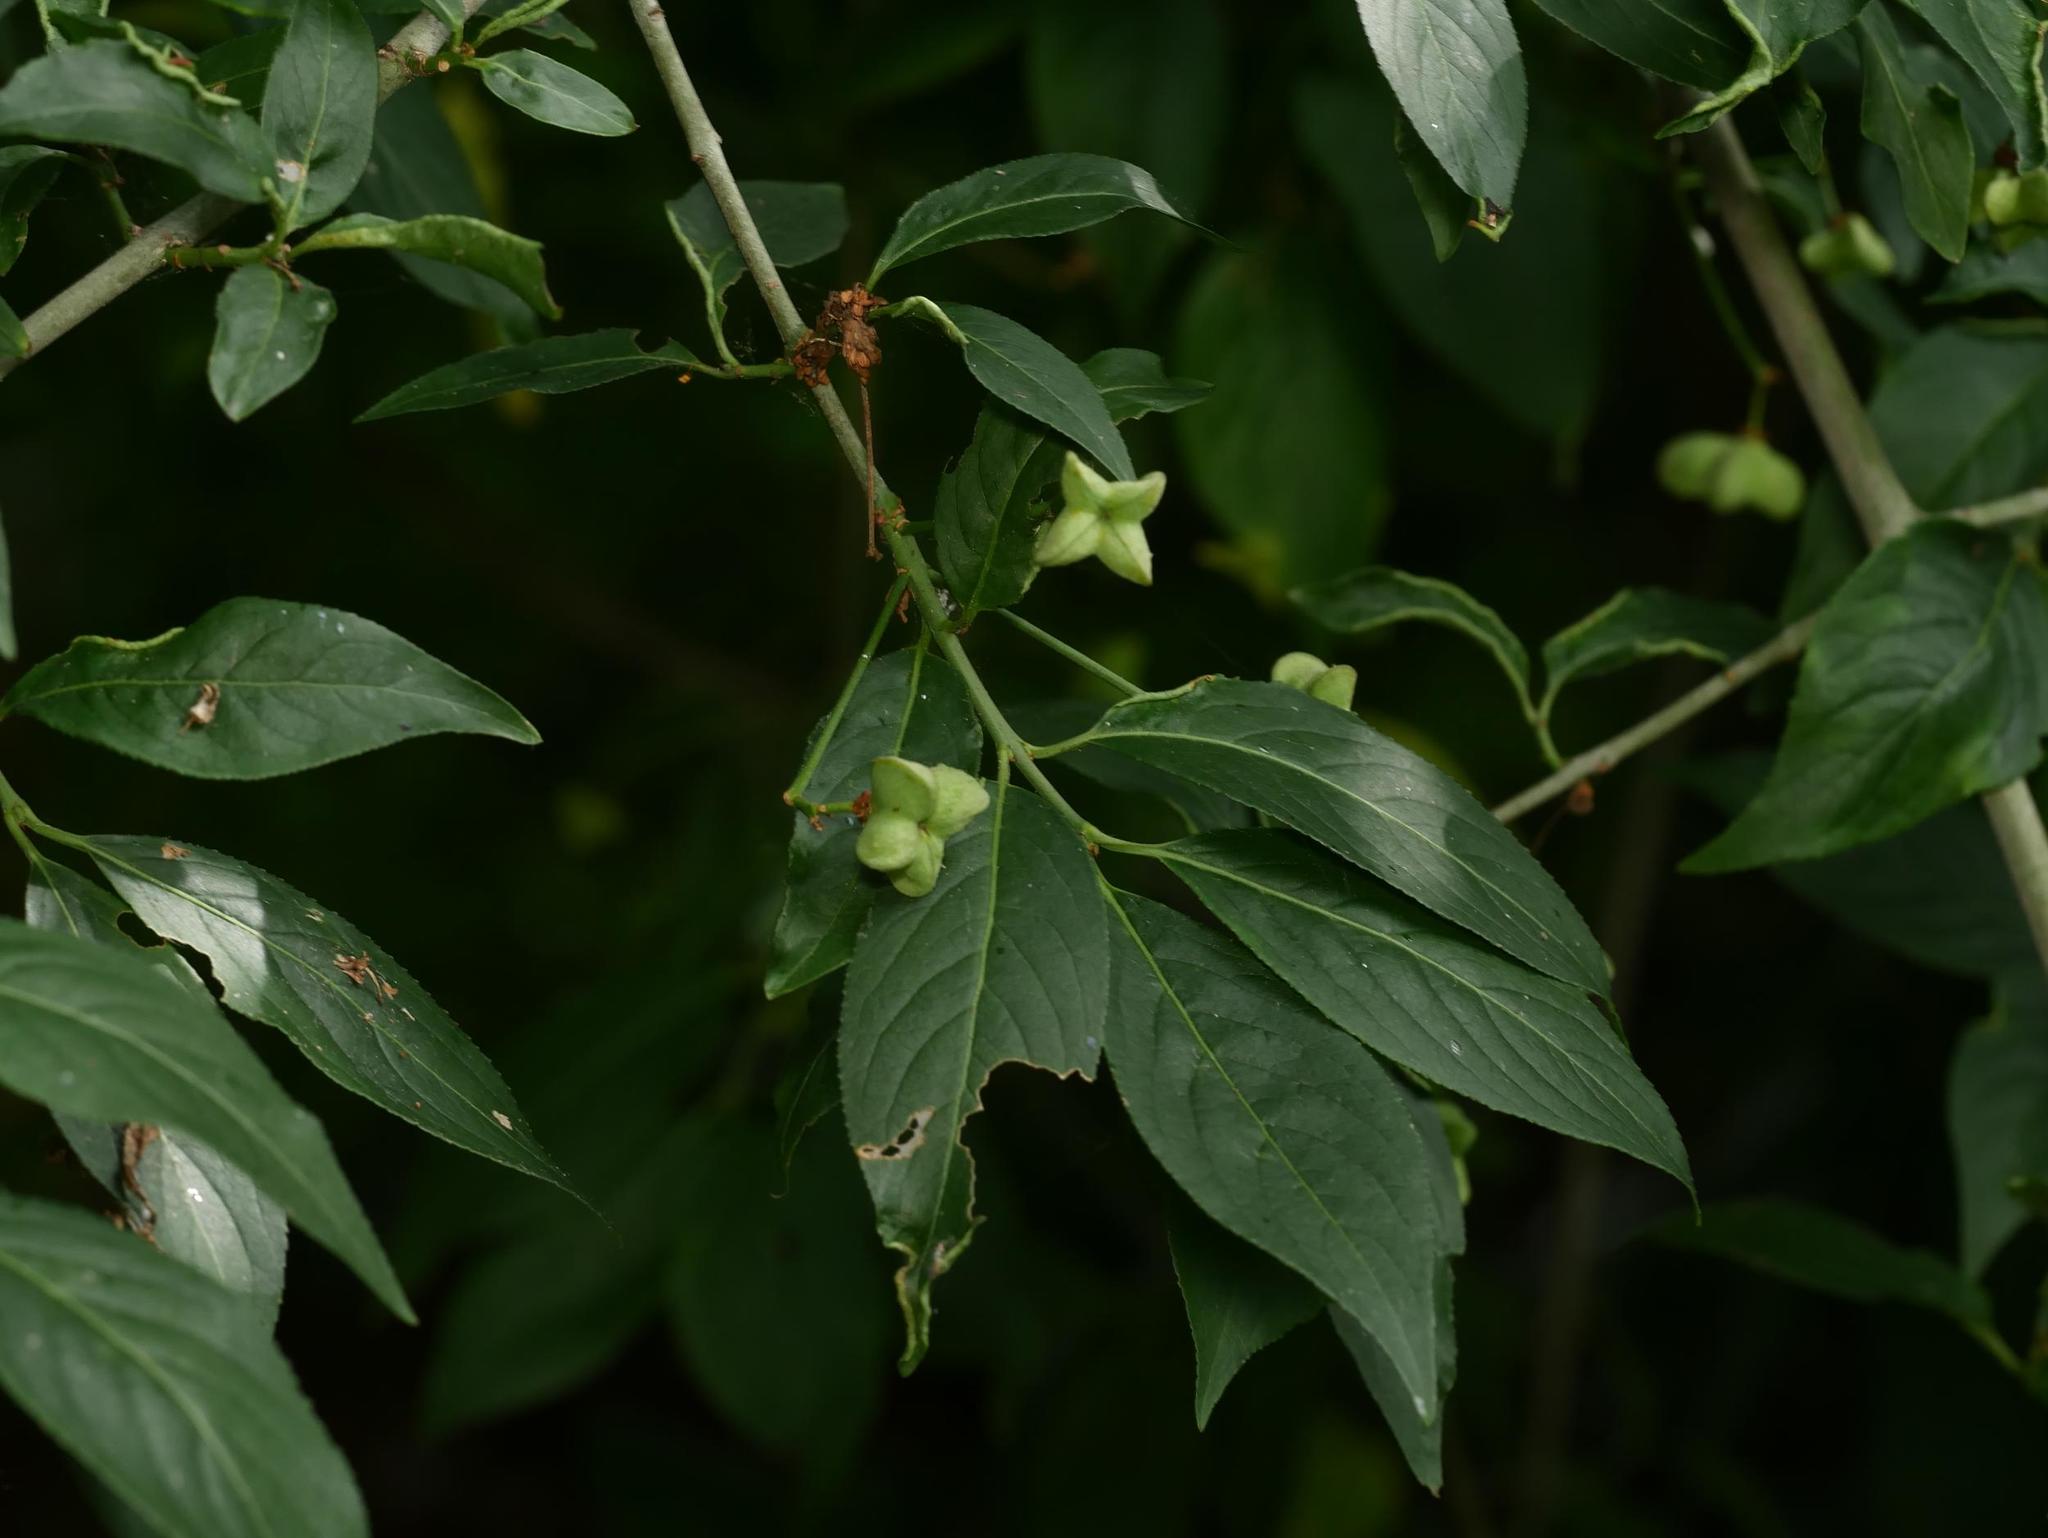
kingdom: Plantae
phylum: Tracheophyta
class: Magnoliopsida
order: Celastrales
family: Celastraceae
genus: Euonymus
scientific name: Euonymus europaeus
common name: Spindle
